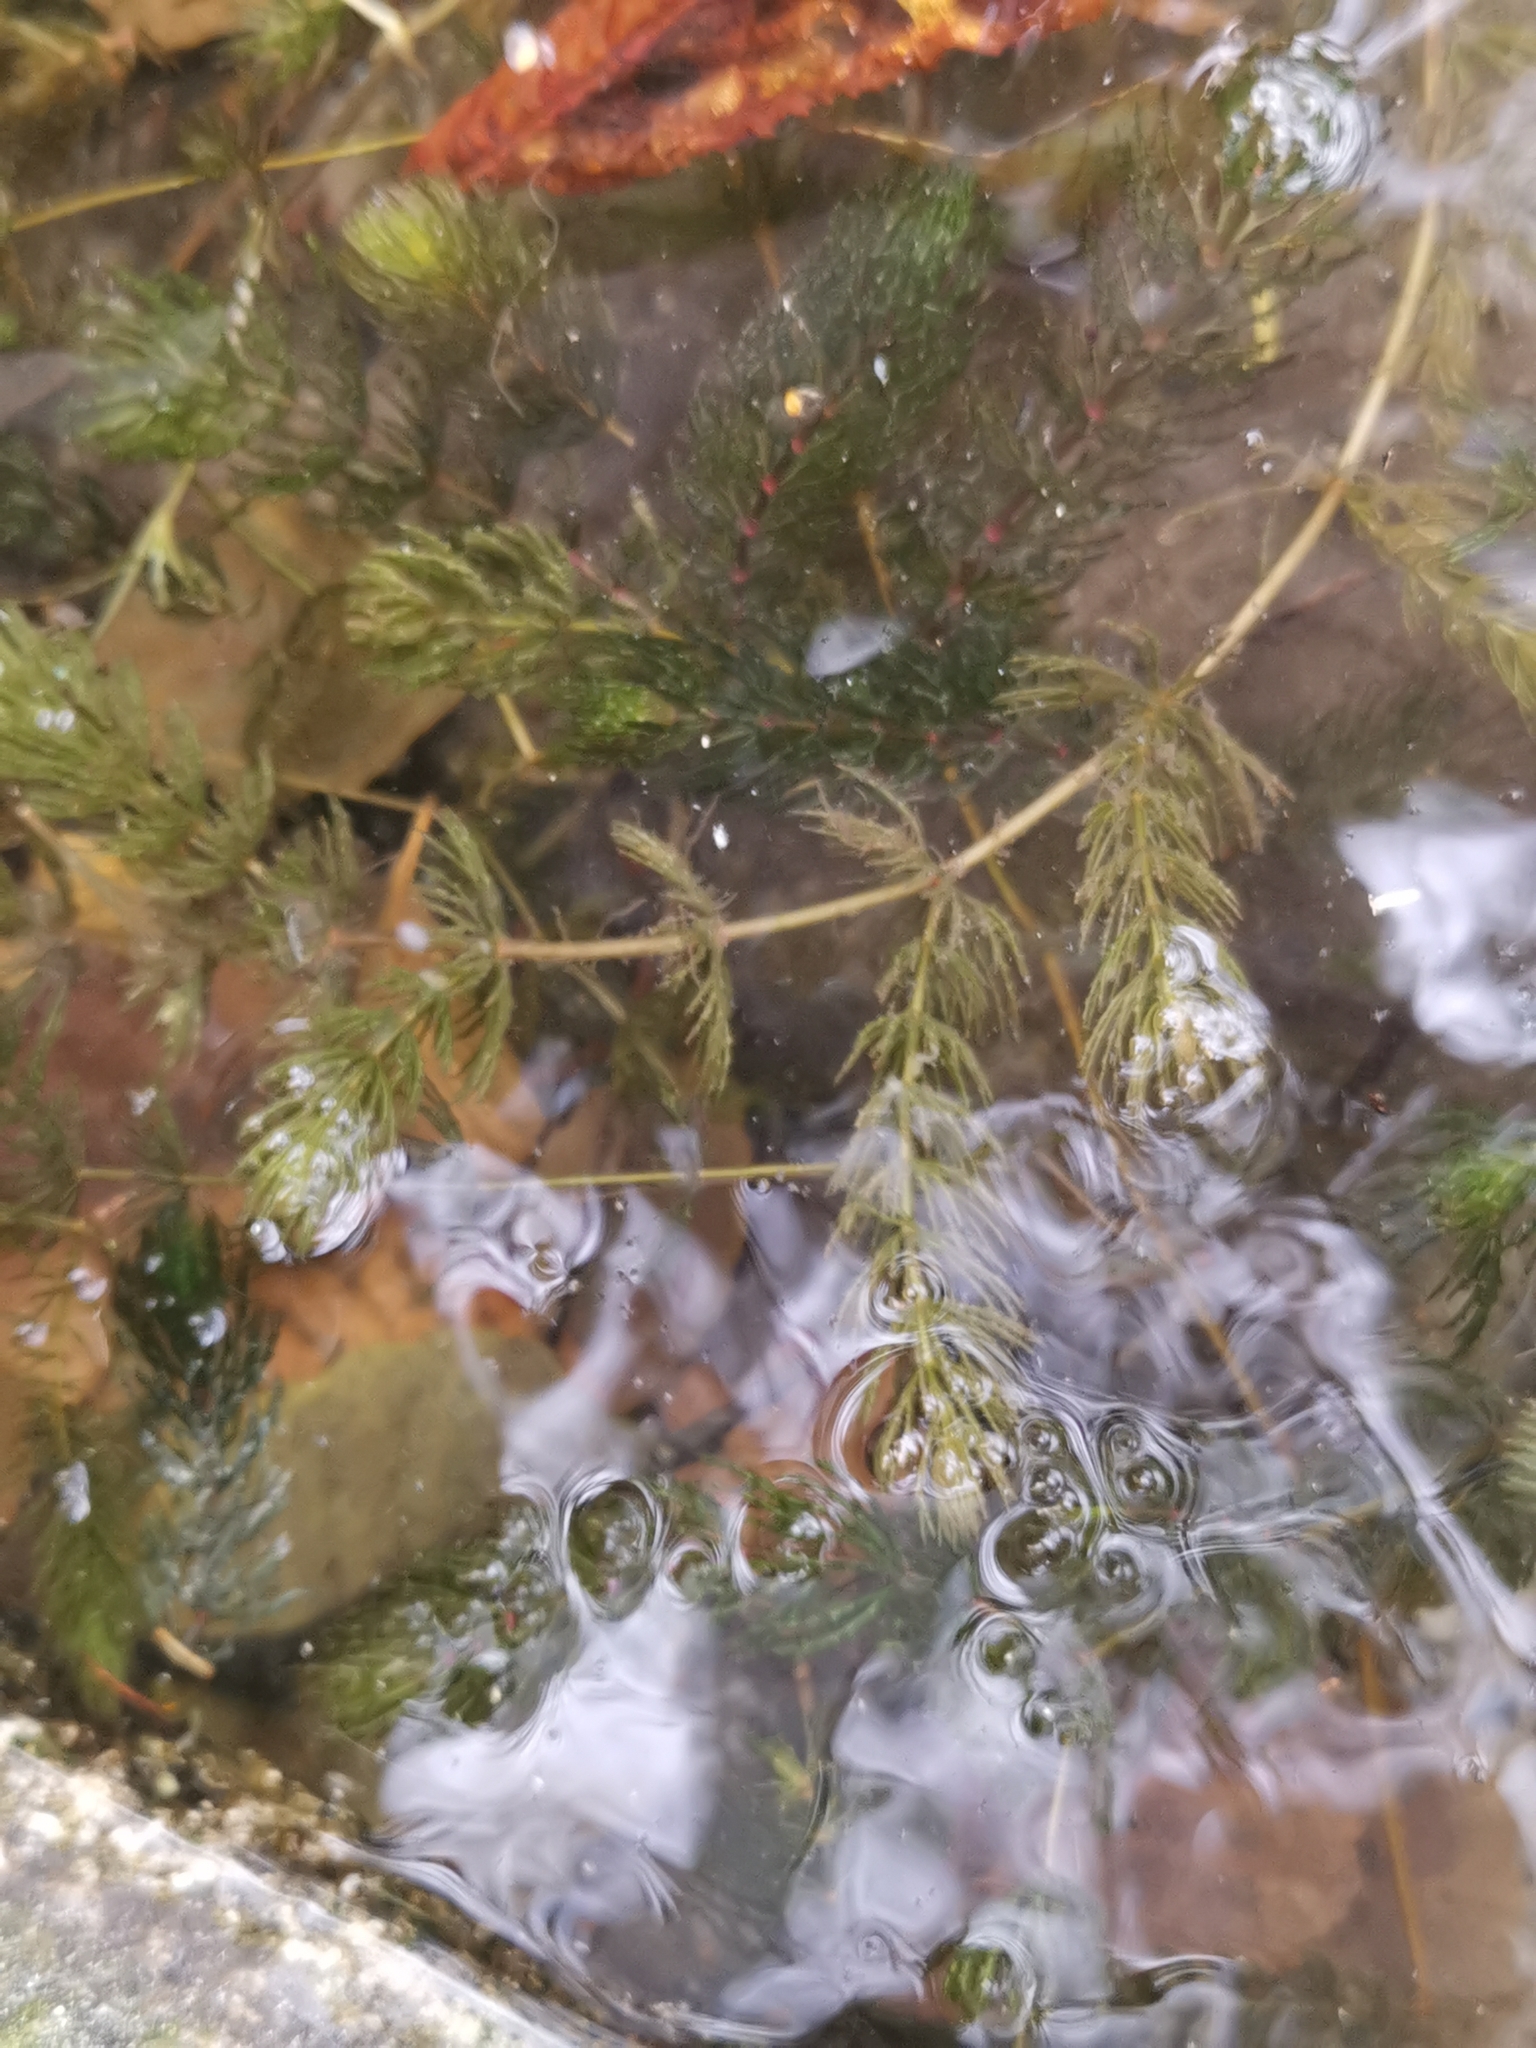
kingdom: Plantae
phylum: Tracheophyta
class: Magnoliopsida
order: Ceratophyllales
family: Ceratophyllaceae
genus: Ceratophyllum
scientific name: Ceratophyllum demersum
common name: Rigid hornwort
